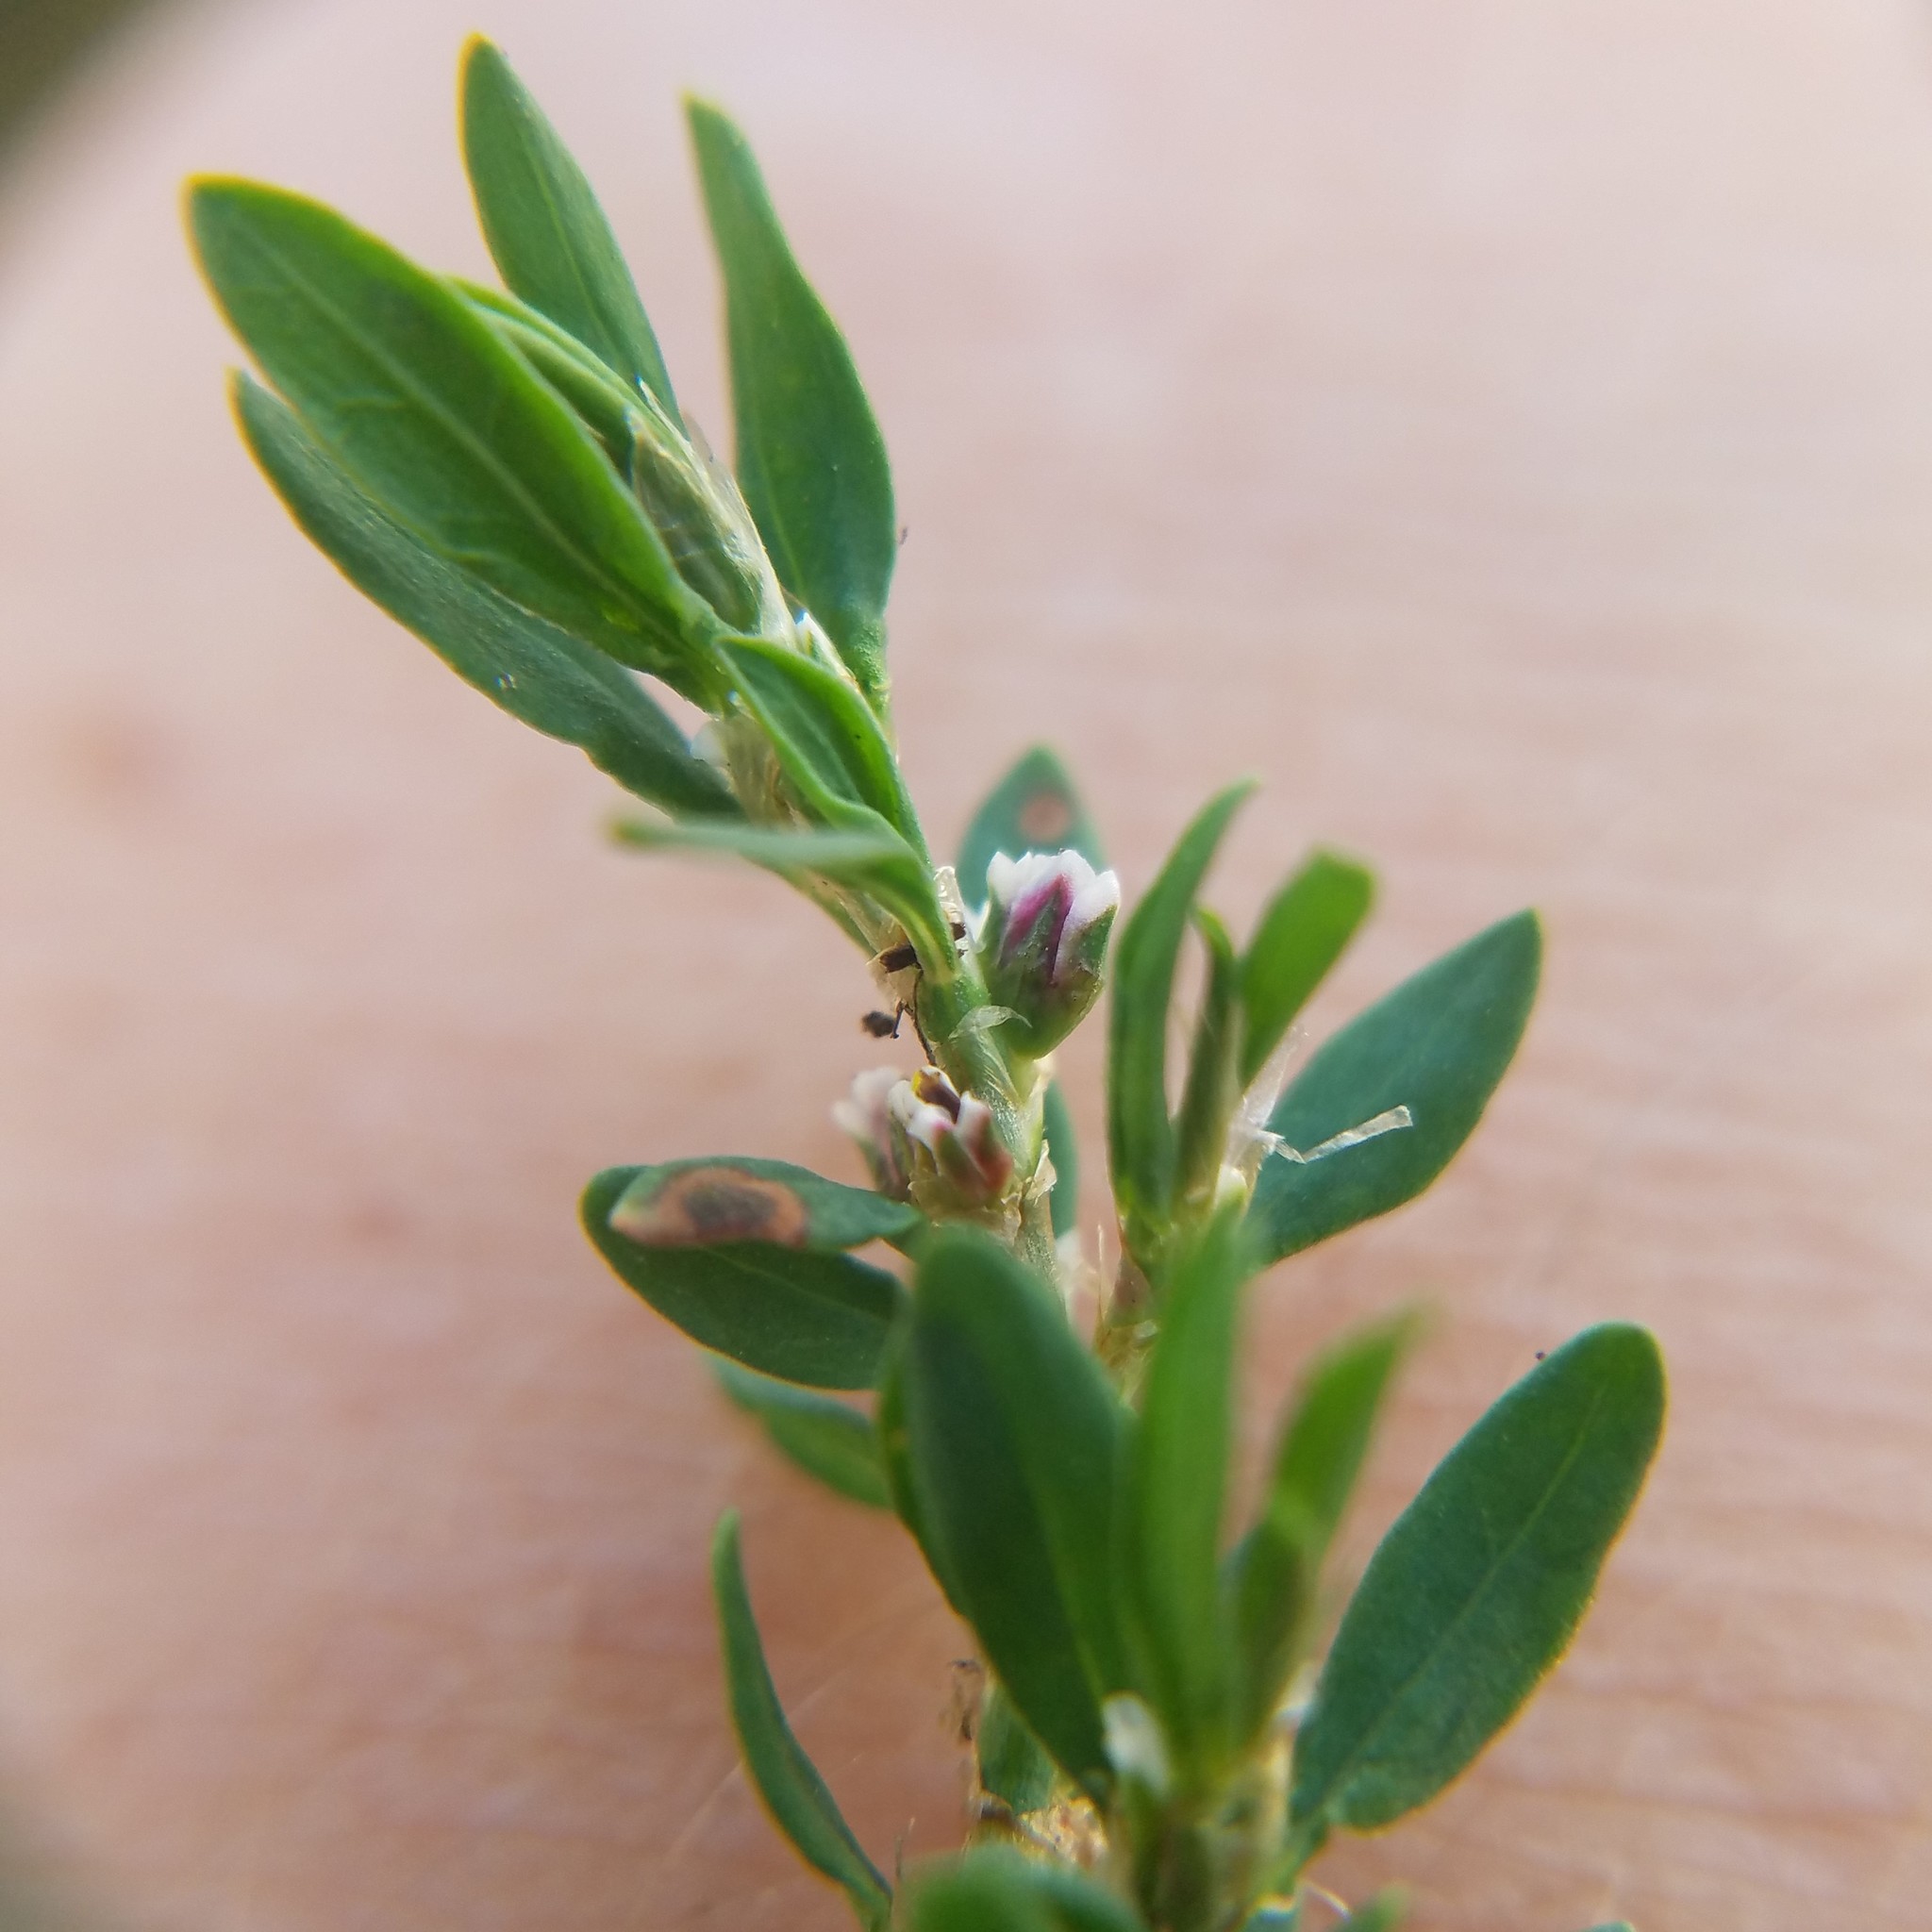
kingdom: Plantae
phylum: Tracheophyta
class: Magnoliopsida
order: Caryophyllales
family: Polygonaceae
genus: Polygonum
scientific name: Polygonum aviculare
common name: Prostrate knotweed
